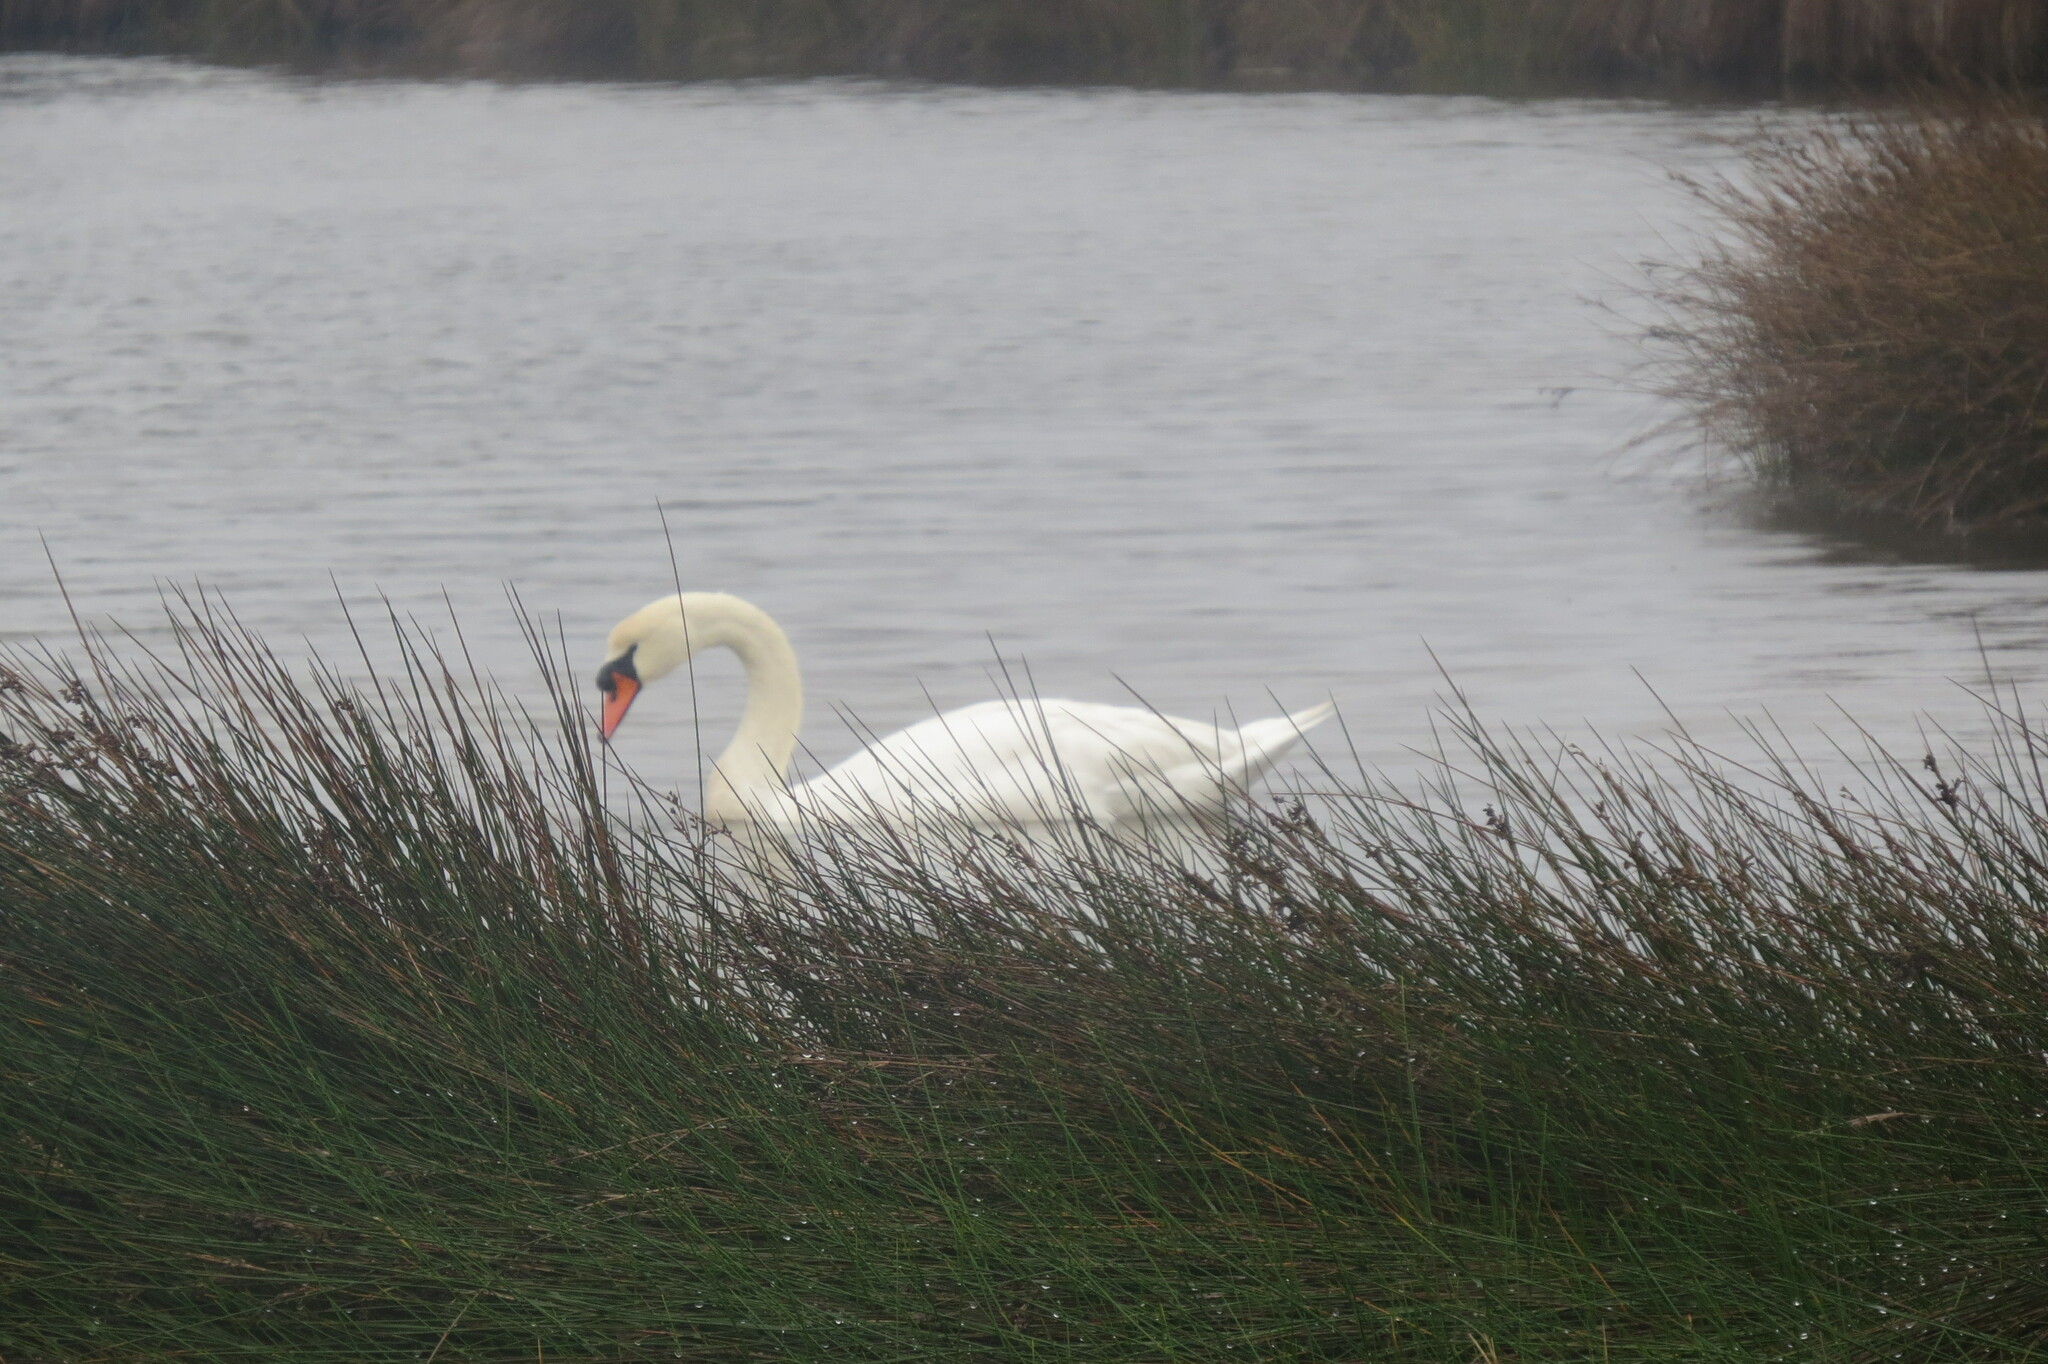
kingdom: Animalia
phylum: Chordata
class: Aves
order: Anseriformes
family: Anatidae
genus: Cygnus
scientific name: Cygnus olor
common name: Mute swan
